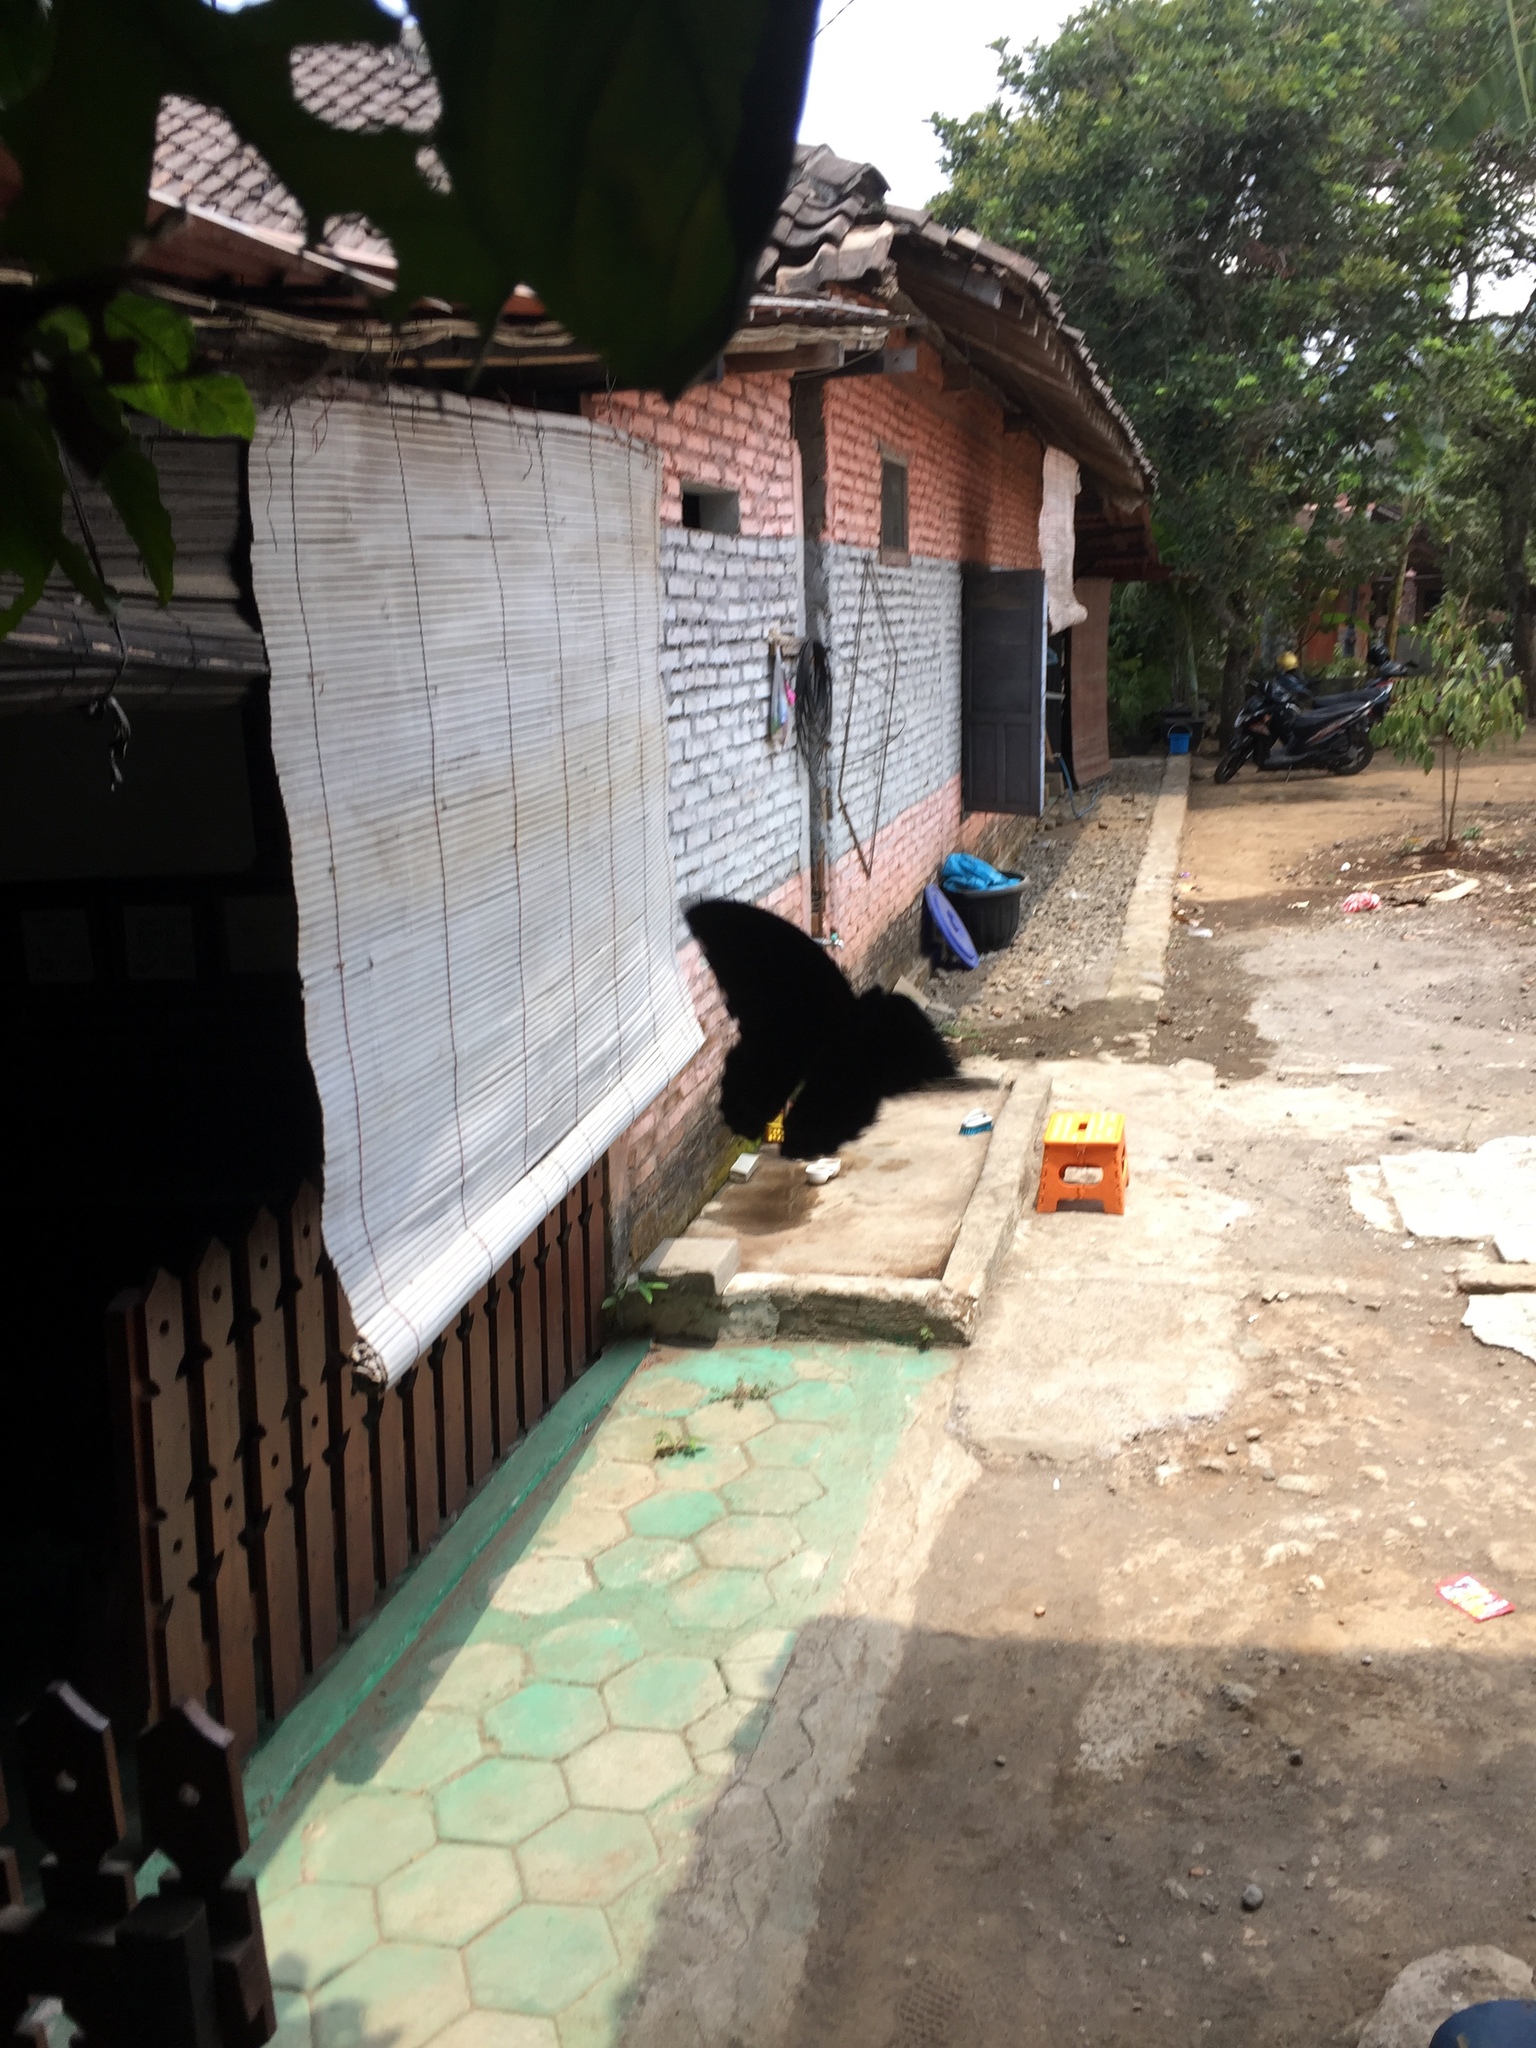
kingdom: Animalia
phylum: Arthropoda
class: Insecta
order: Lepidoptera
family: Papilionidae
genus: Papilio
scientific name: Papilio memnon
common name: Great mormon
